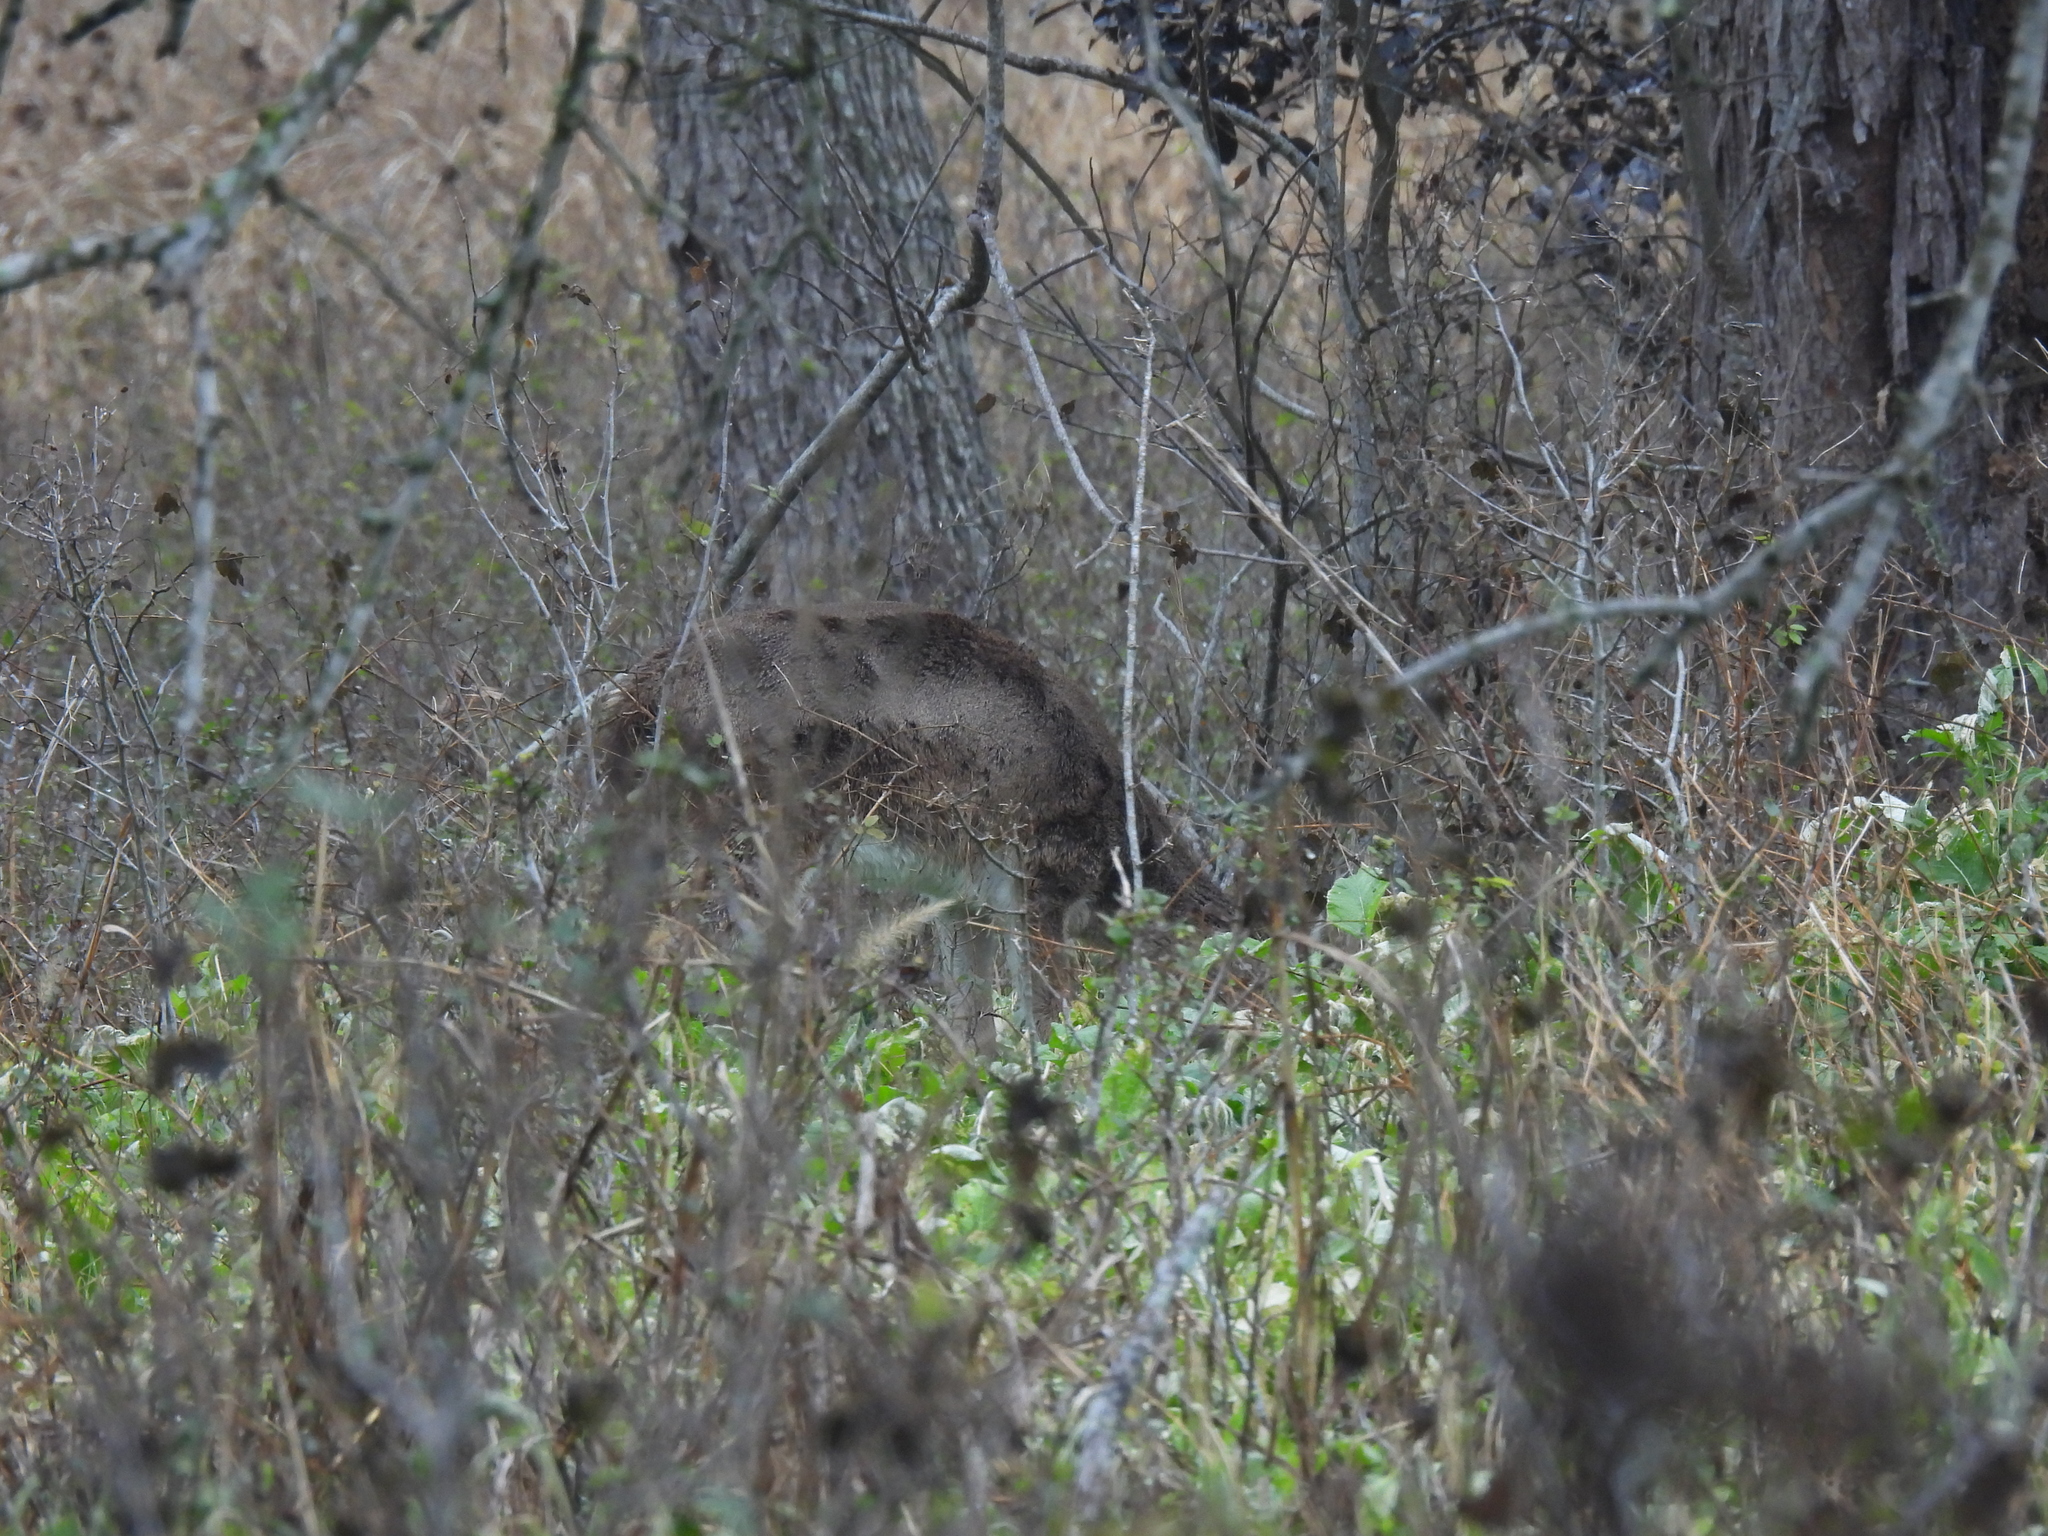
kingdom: Animalia
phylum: Chordata
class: Mammalia
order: Artiodactyla
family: Cervidae
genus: Odocoileus
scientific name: Odocoileus virginianus
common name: White-tailed deer
